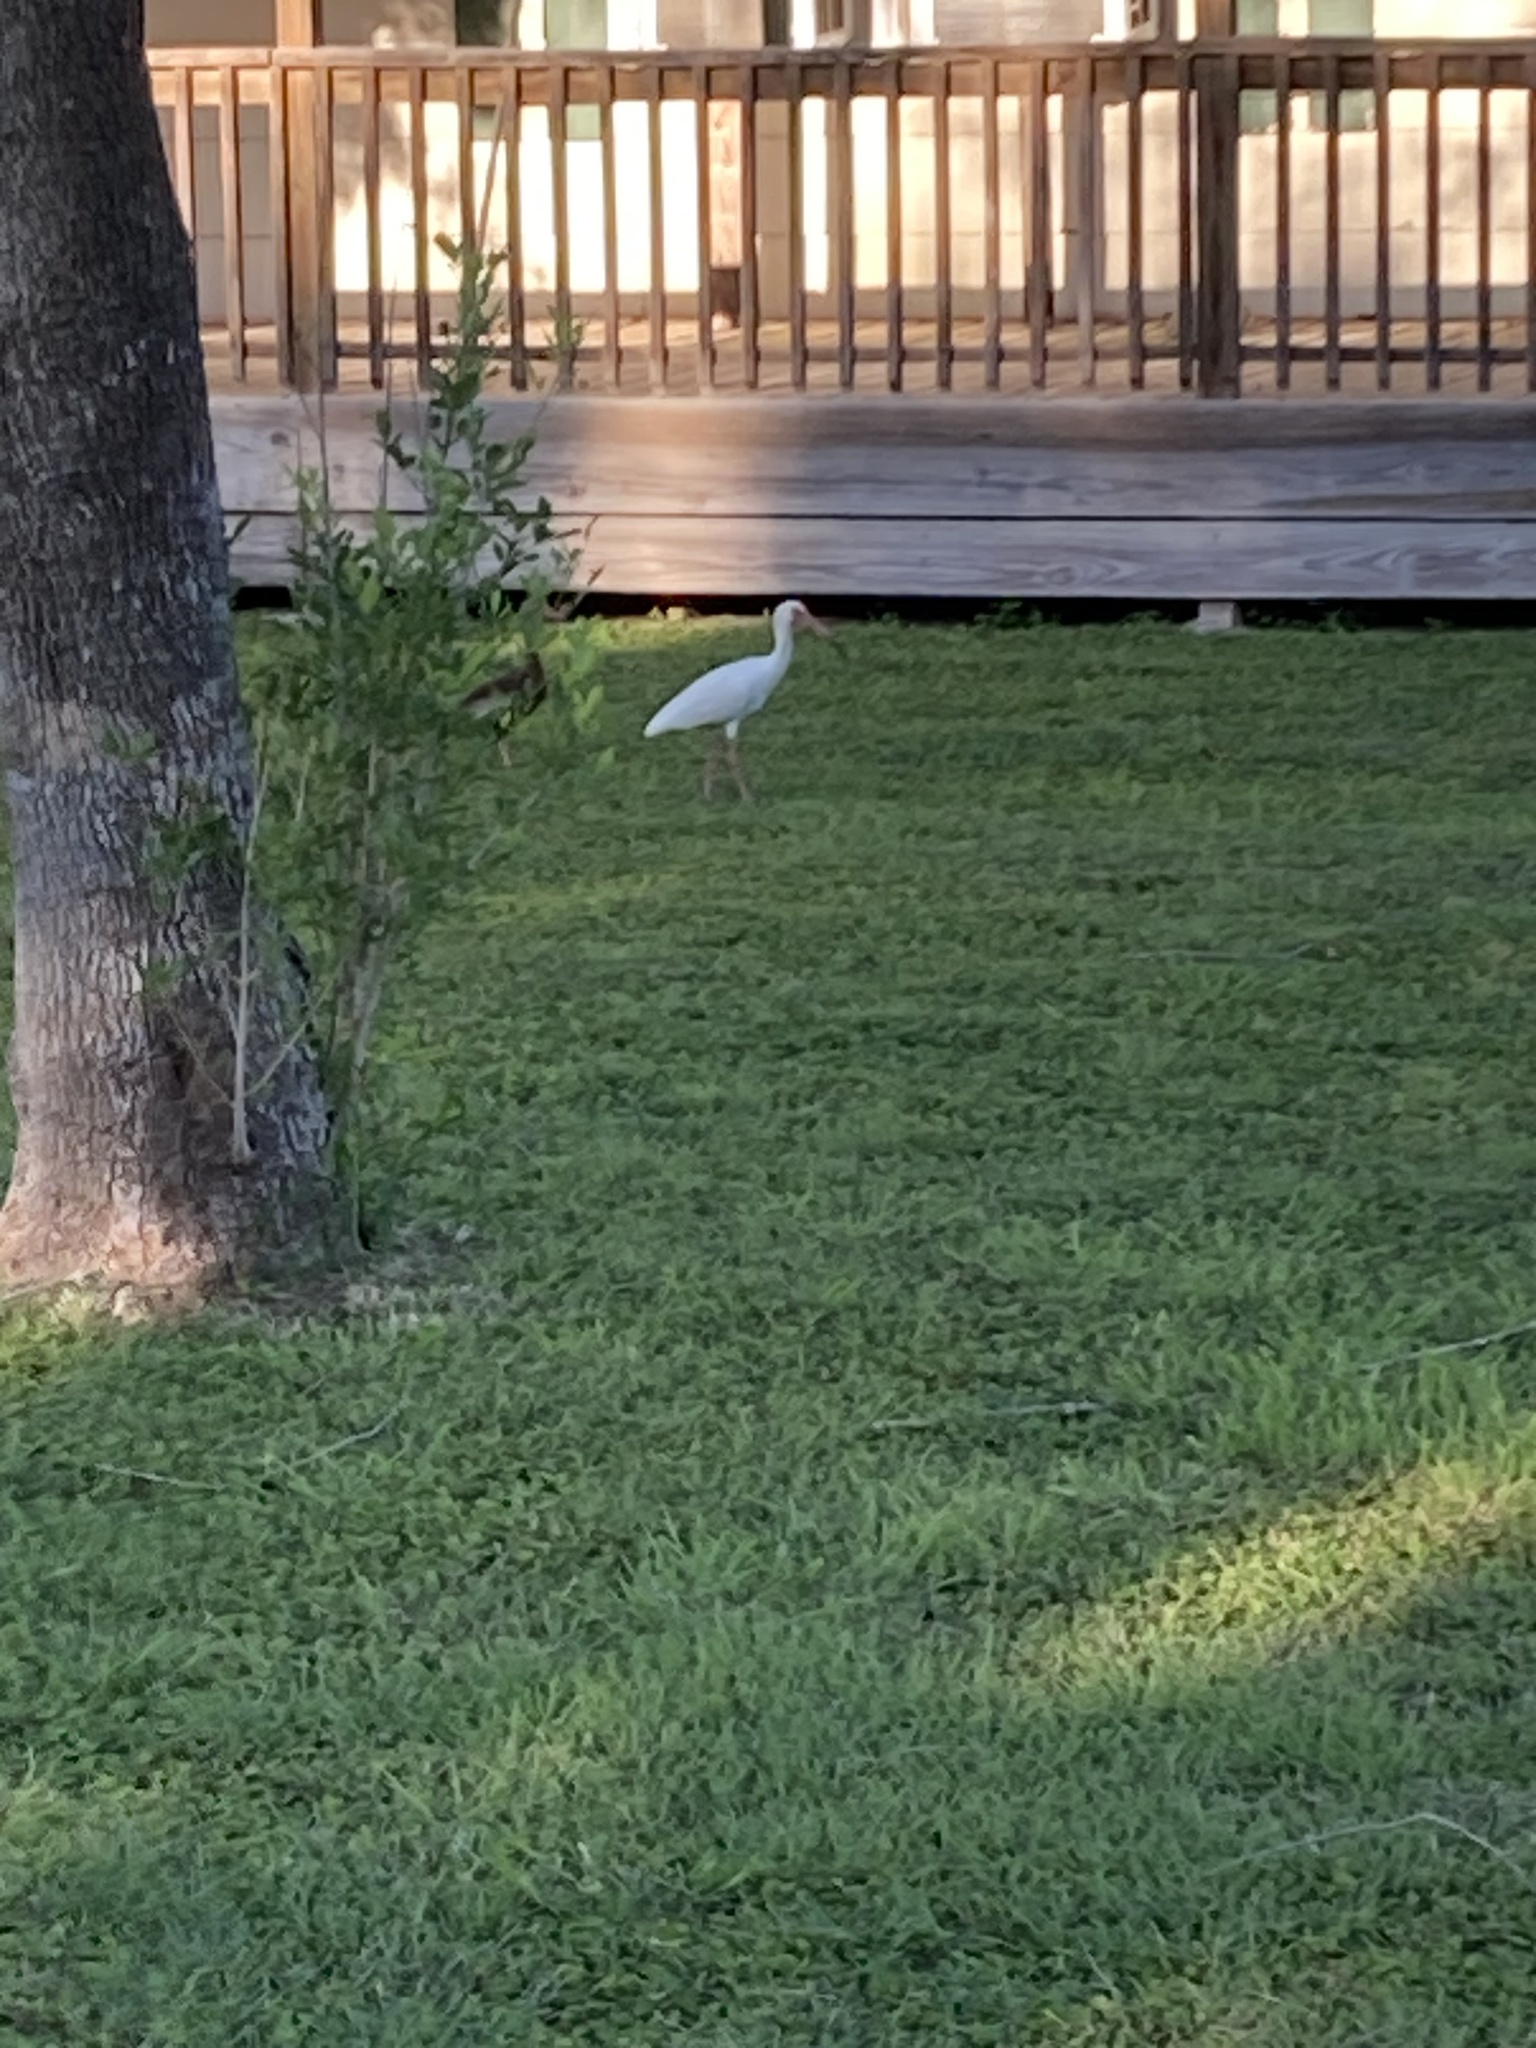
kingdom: Animalia
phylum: Chordata
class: Aves
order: Pelecaniformes
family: Threskiornithidae
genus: Eudocimus
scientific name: Eudocimus albus
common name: White ibis
